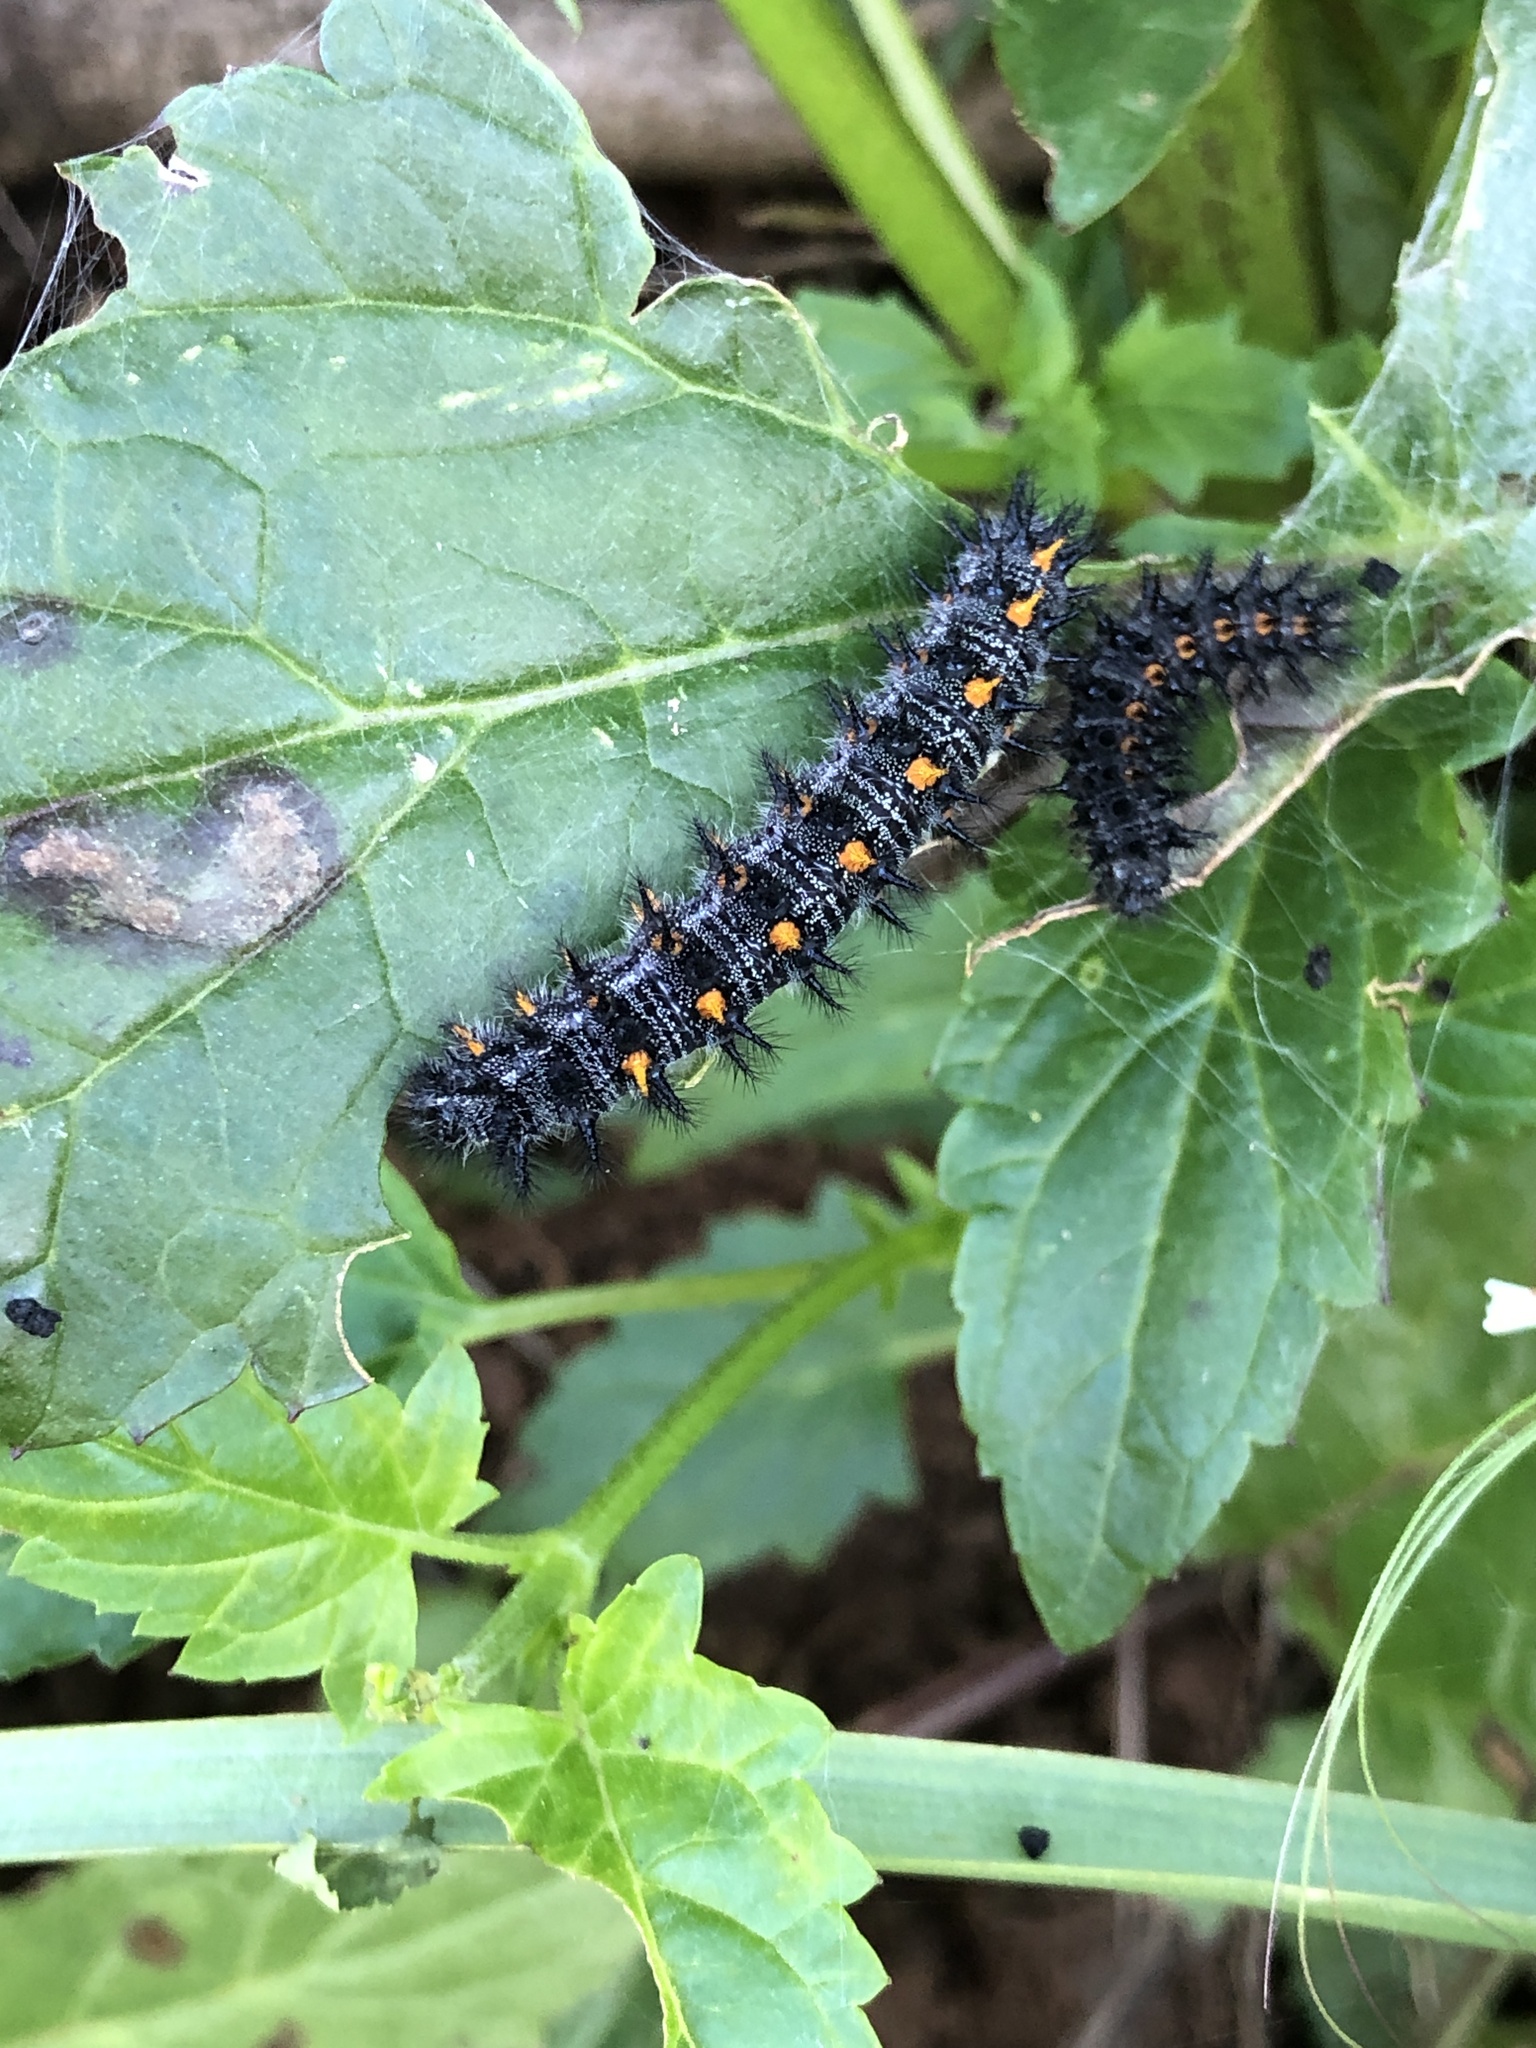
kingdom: Animalia
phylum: Arthropoda
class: Insecta
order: Lepidoptera
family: Nymphalidae
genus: Occidryas
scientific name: Occidryas chalcedona
